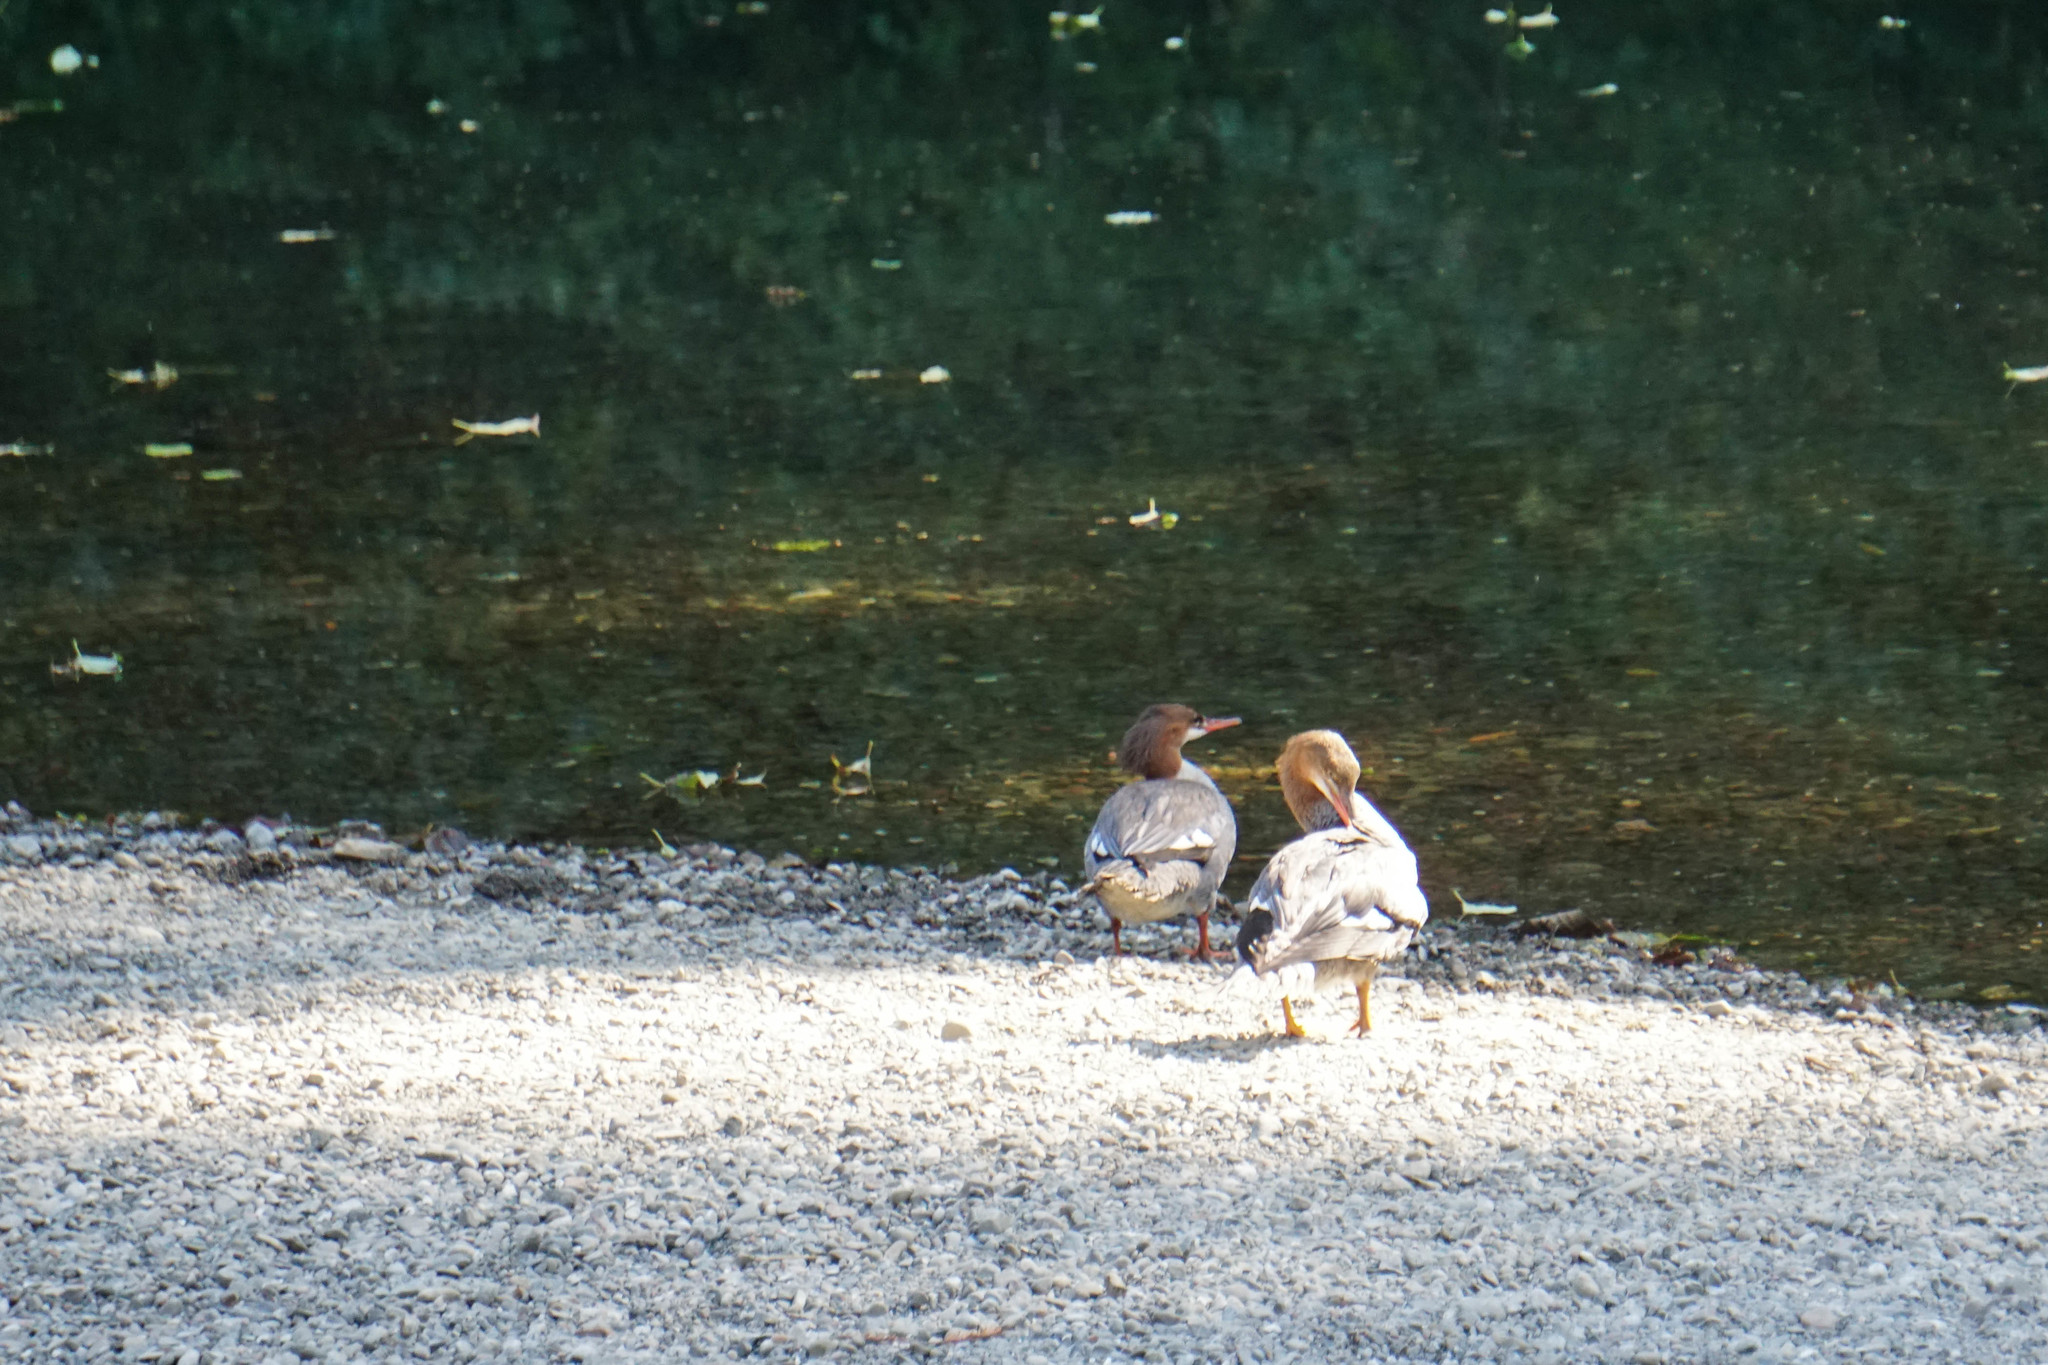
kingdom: Animalia
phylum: Chordata
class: Aves
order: Anseriformes
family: Anatidae
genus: Mergus
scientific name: Mergus merganser
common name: Common merganser
